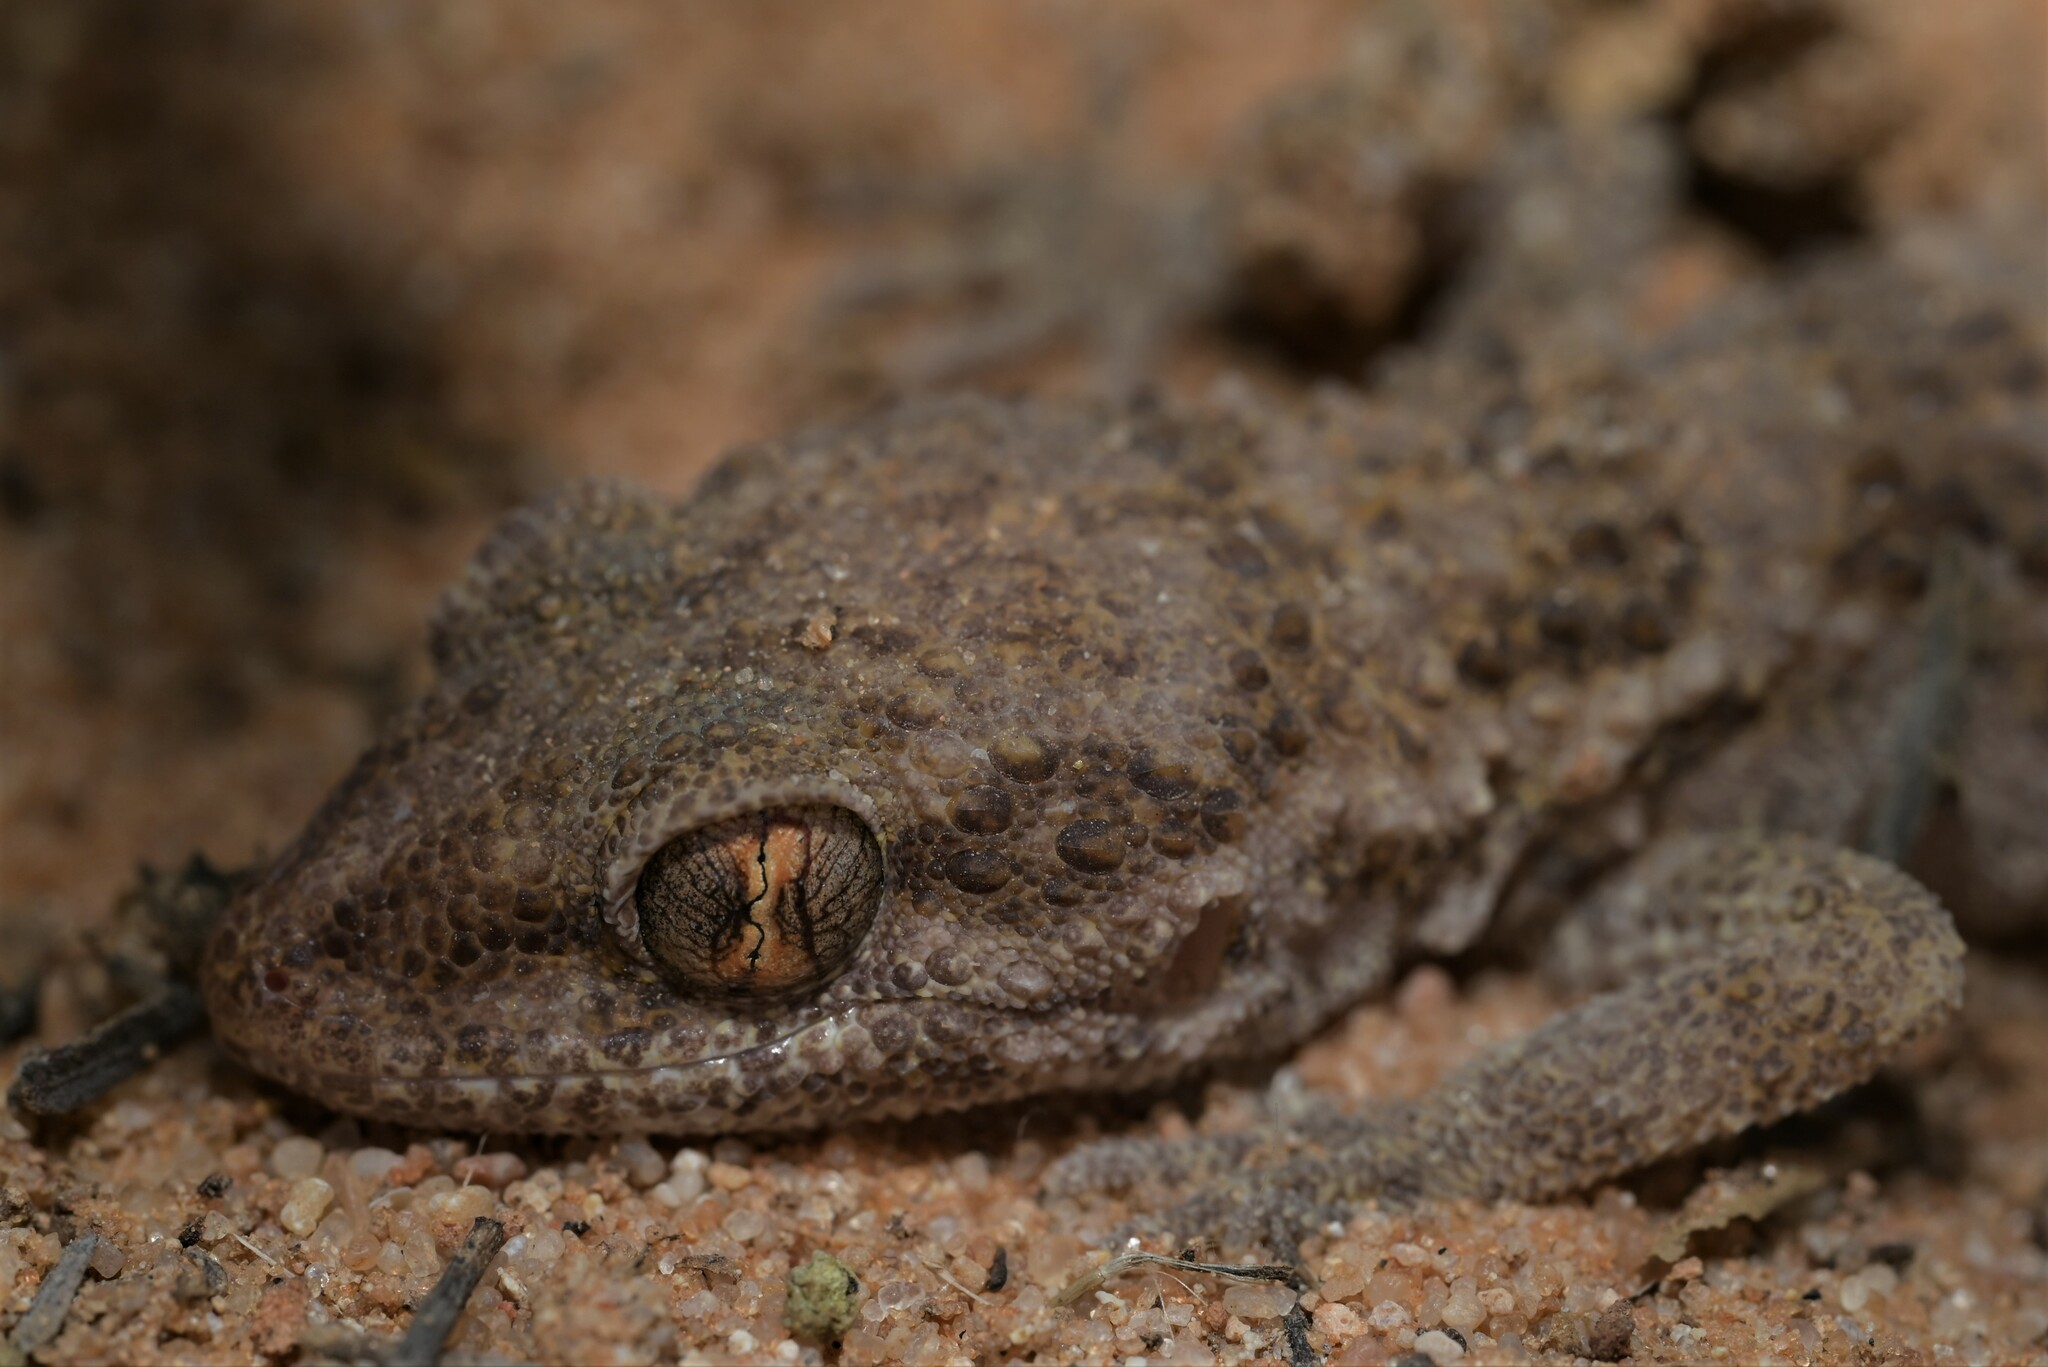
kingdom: Animalia
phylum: Chordata
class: Squamata
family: Gekkonidae
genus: Bunopus
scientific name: Bunopus tuberculatus
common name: Southern tuberculated gecko
